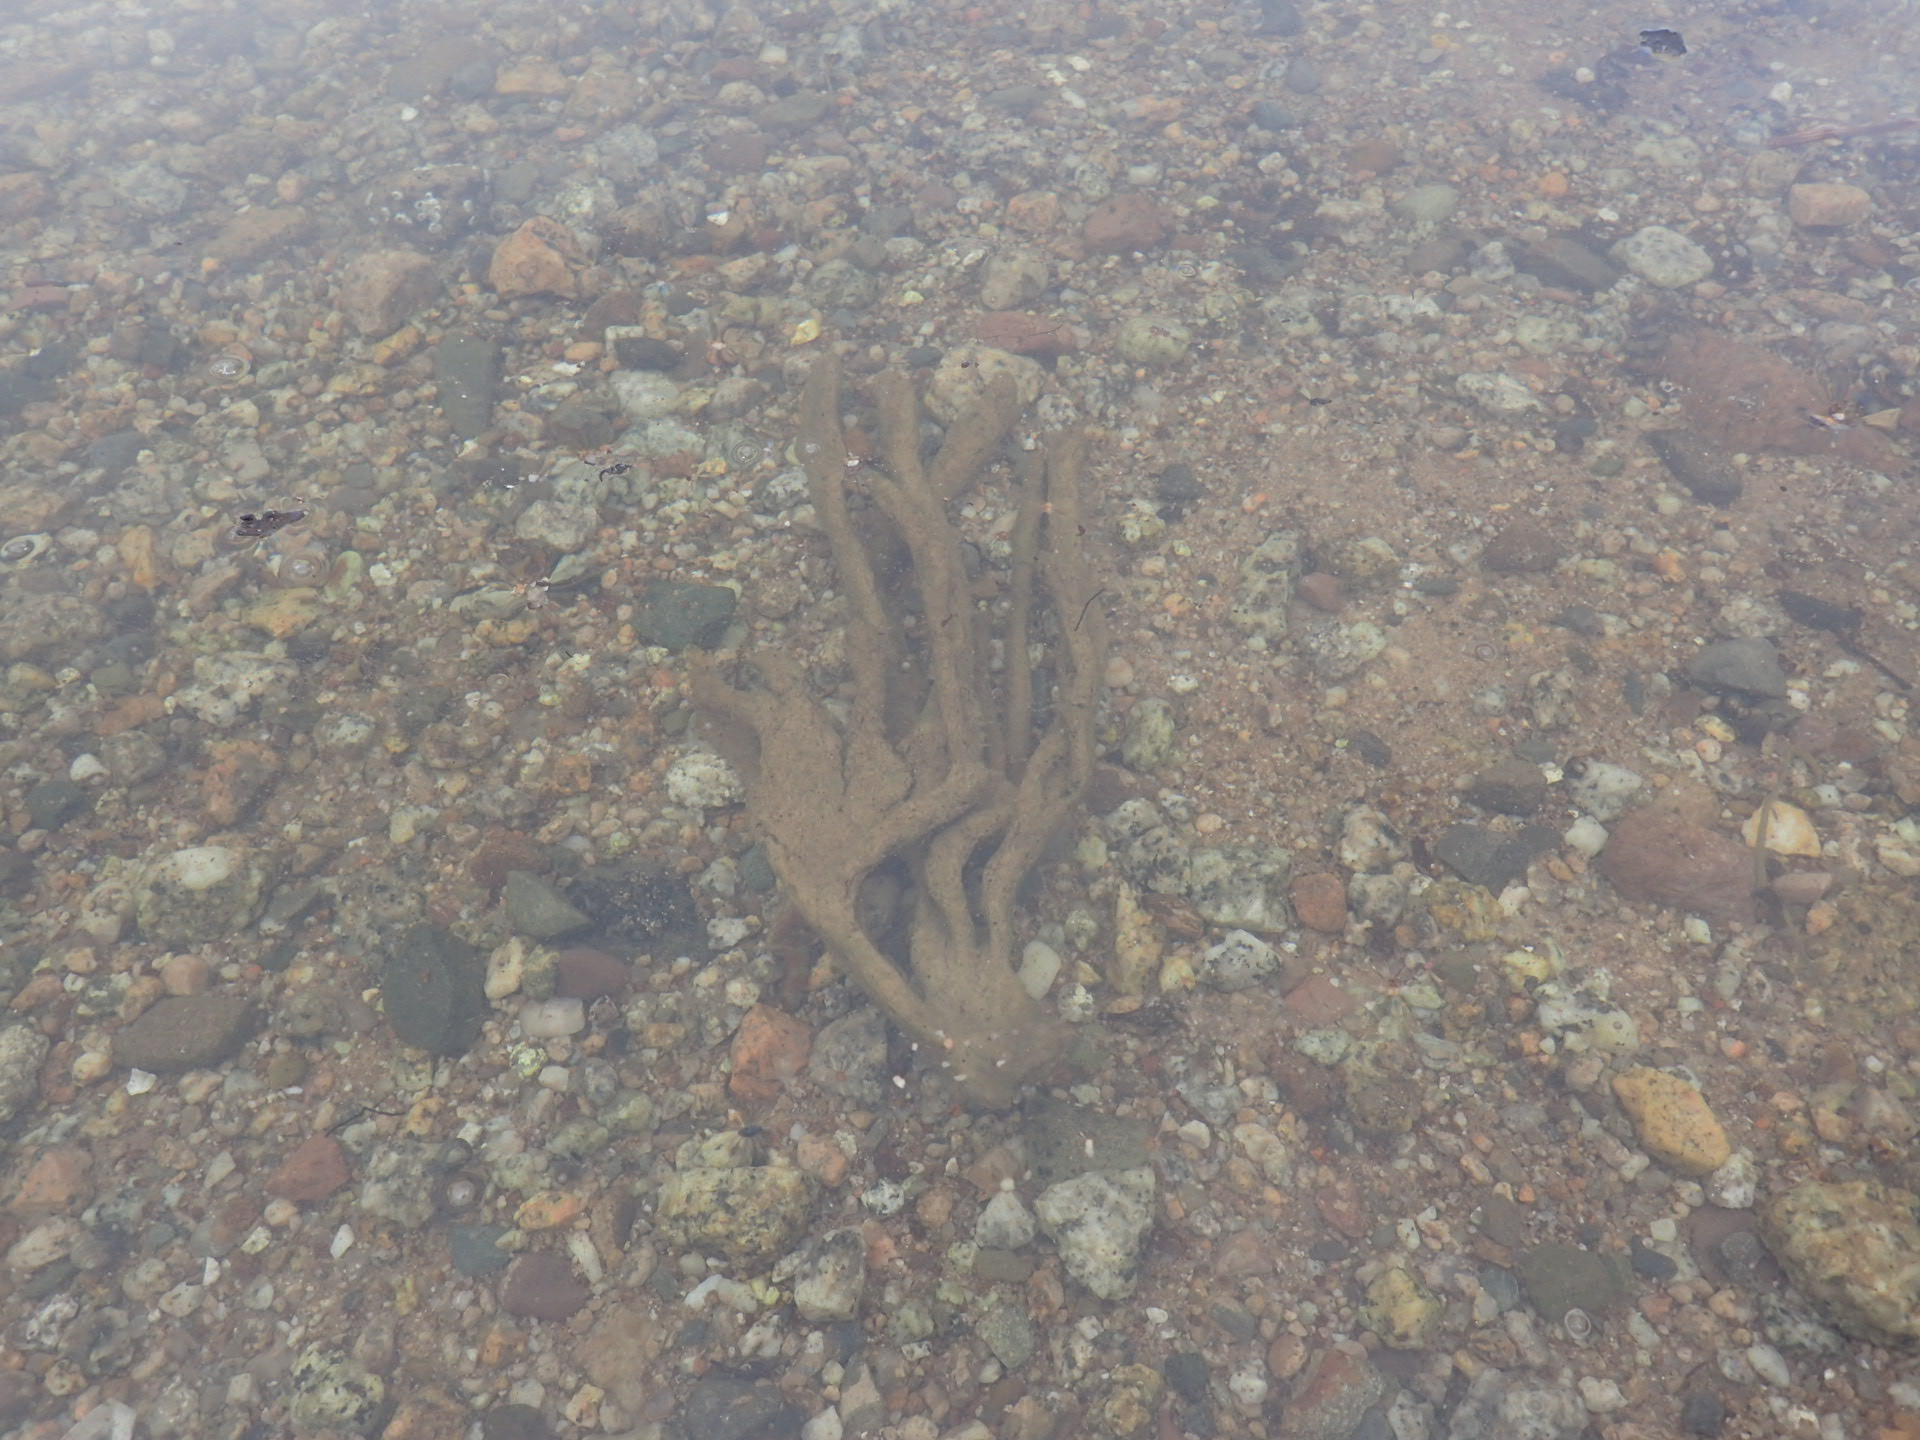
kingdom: Animalia
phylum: Porifera
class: Demospongiae
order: Haplosclerida
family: Chalinidae
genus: Haliclona
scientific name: Haliclona oculata
